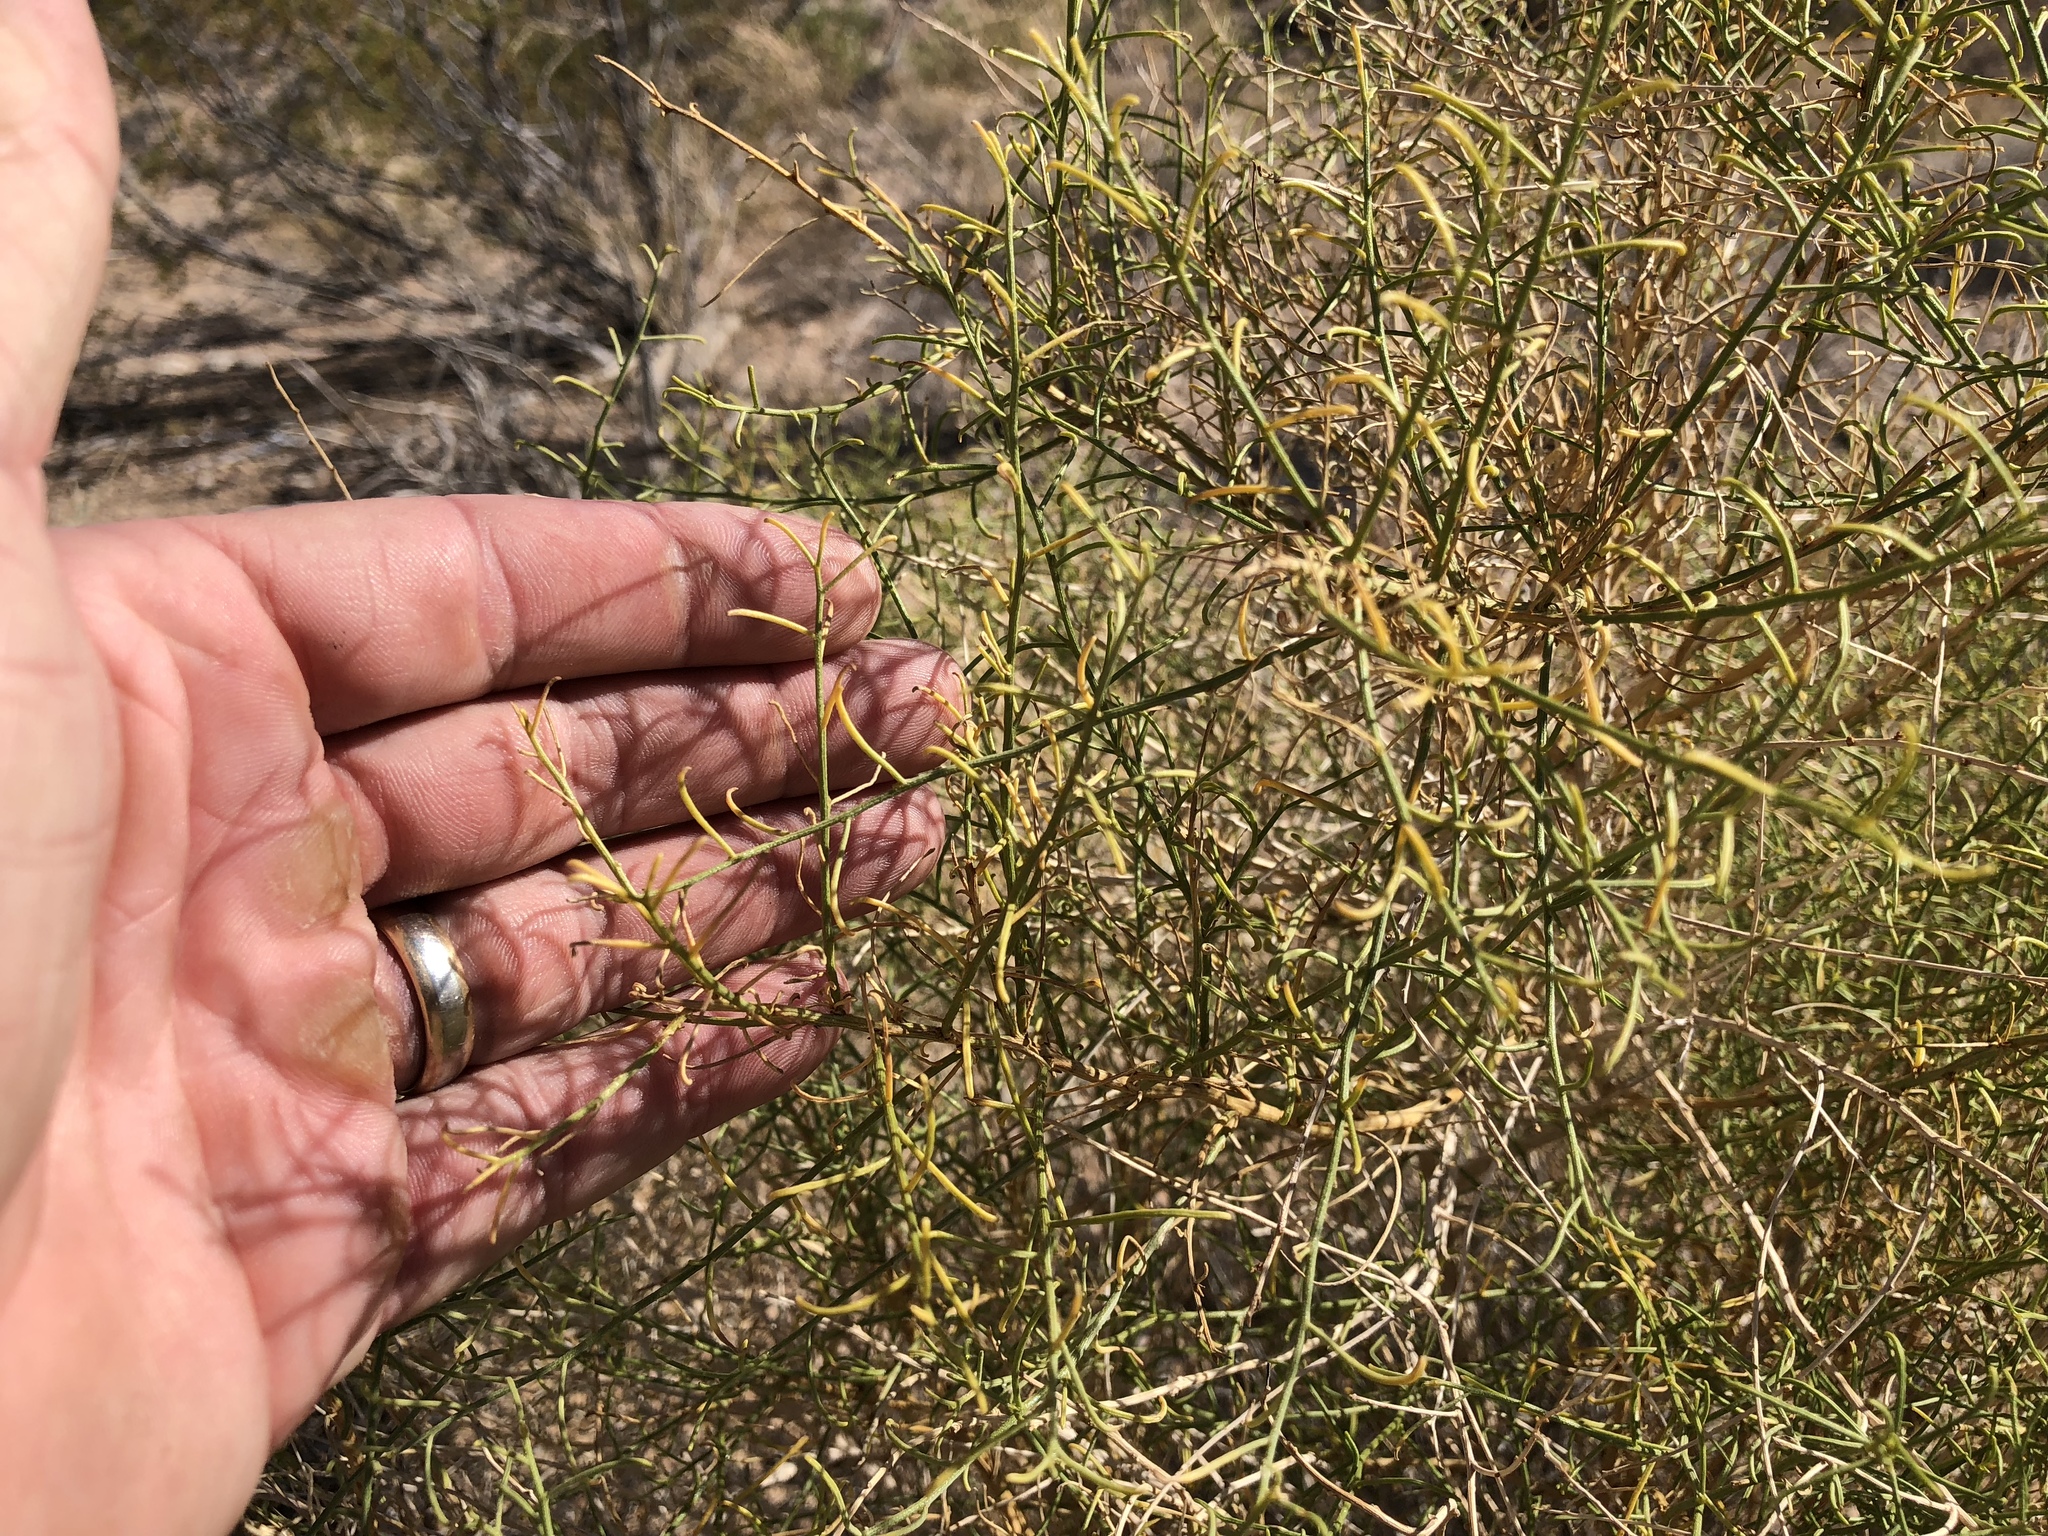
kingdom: Plantae
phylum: Tracheophyta
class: Magnoliopsida
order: Asterales
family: Asteraceae
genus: Ambrosia
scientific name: Ambrosia salsola
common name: Burrobrush
